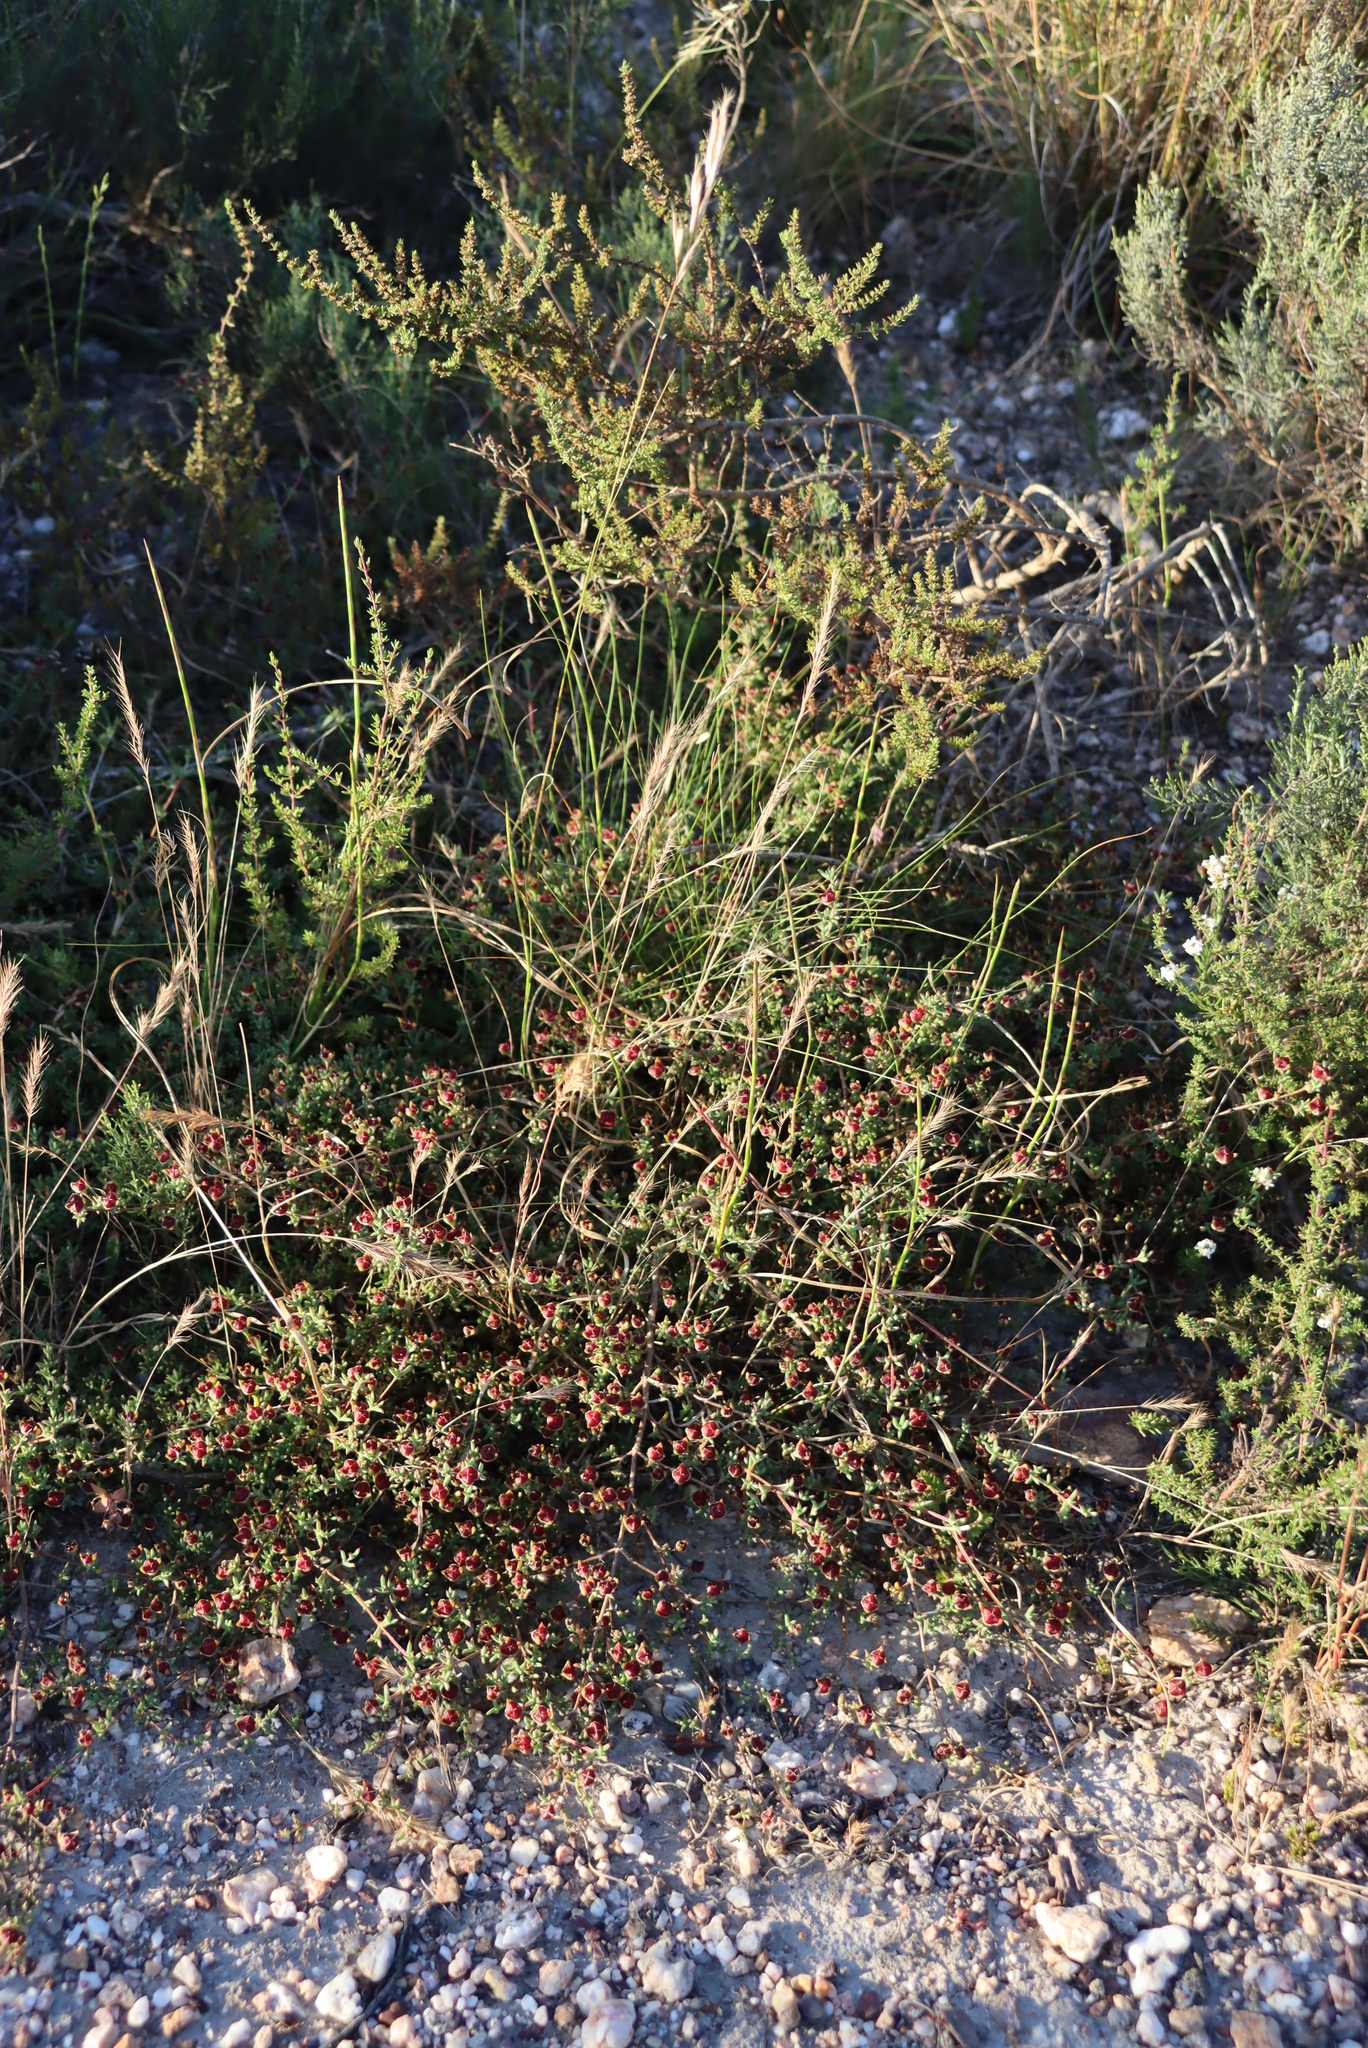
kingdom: Plantae
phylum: Tracheophyta
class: Magnoliopsida
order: Caryophyllales
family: Aizoaceae
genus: Delosperma
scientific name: Delosperma asperulum
